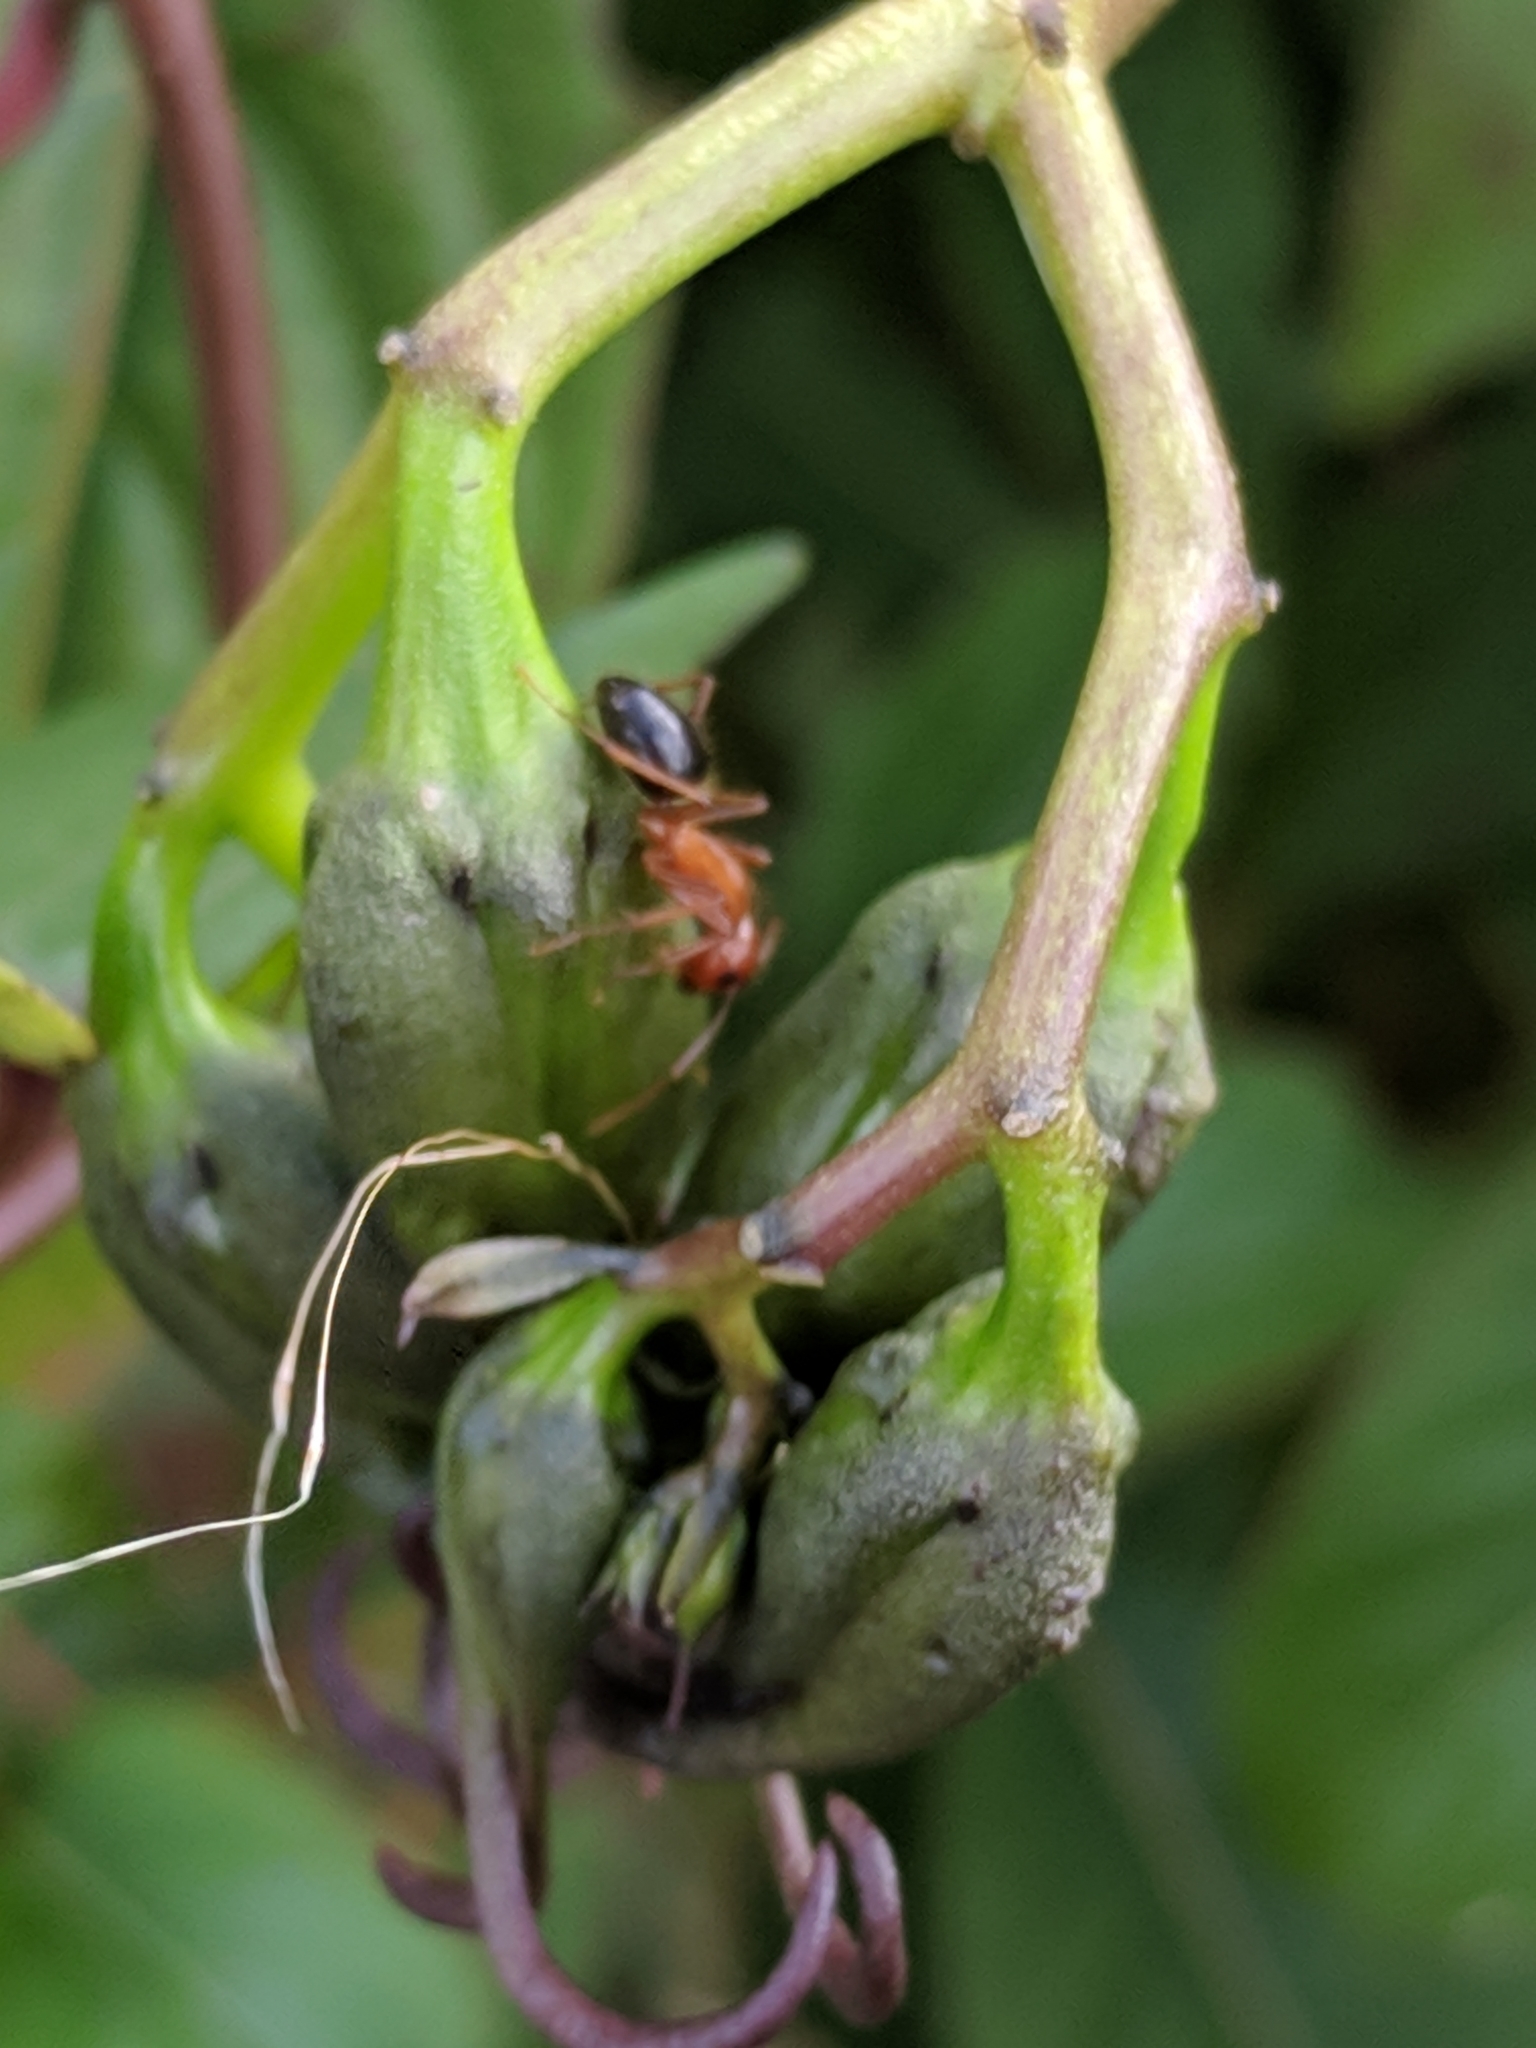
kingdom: Animalia
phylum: Arthropoda
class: Insecta
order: Hymenoptera
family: Formicidae
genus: Camponotus
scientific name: Camponotus floridanus
